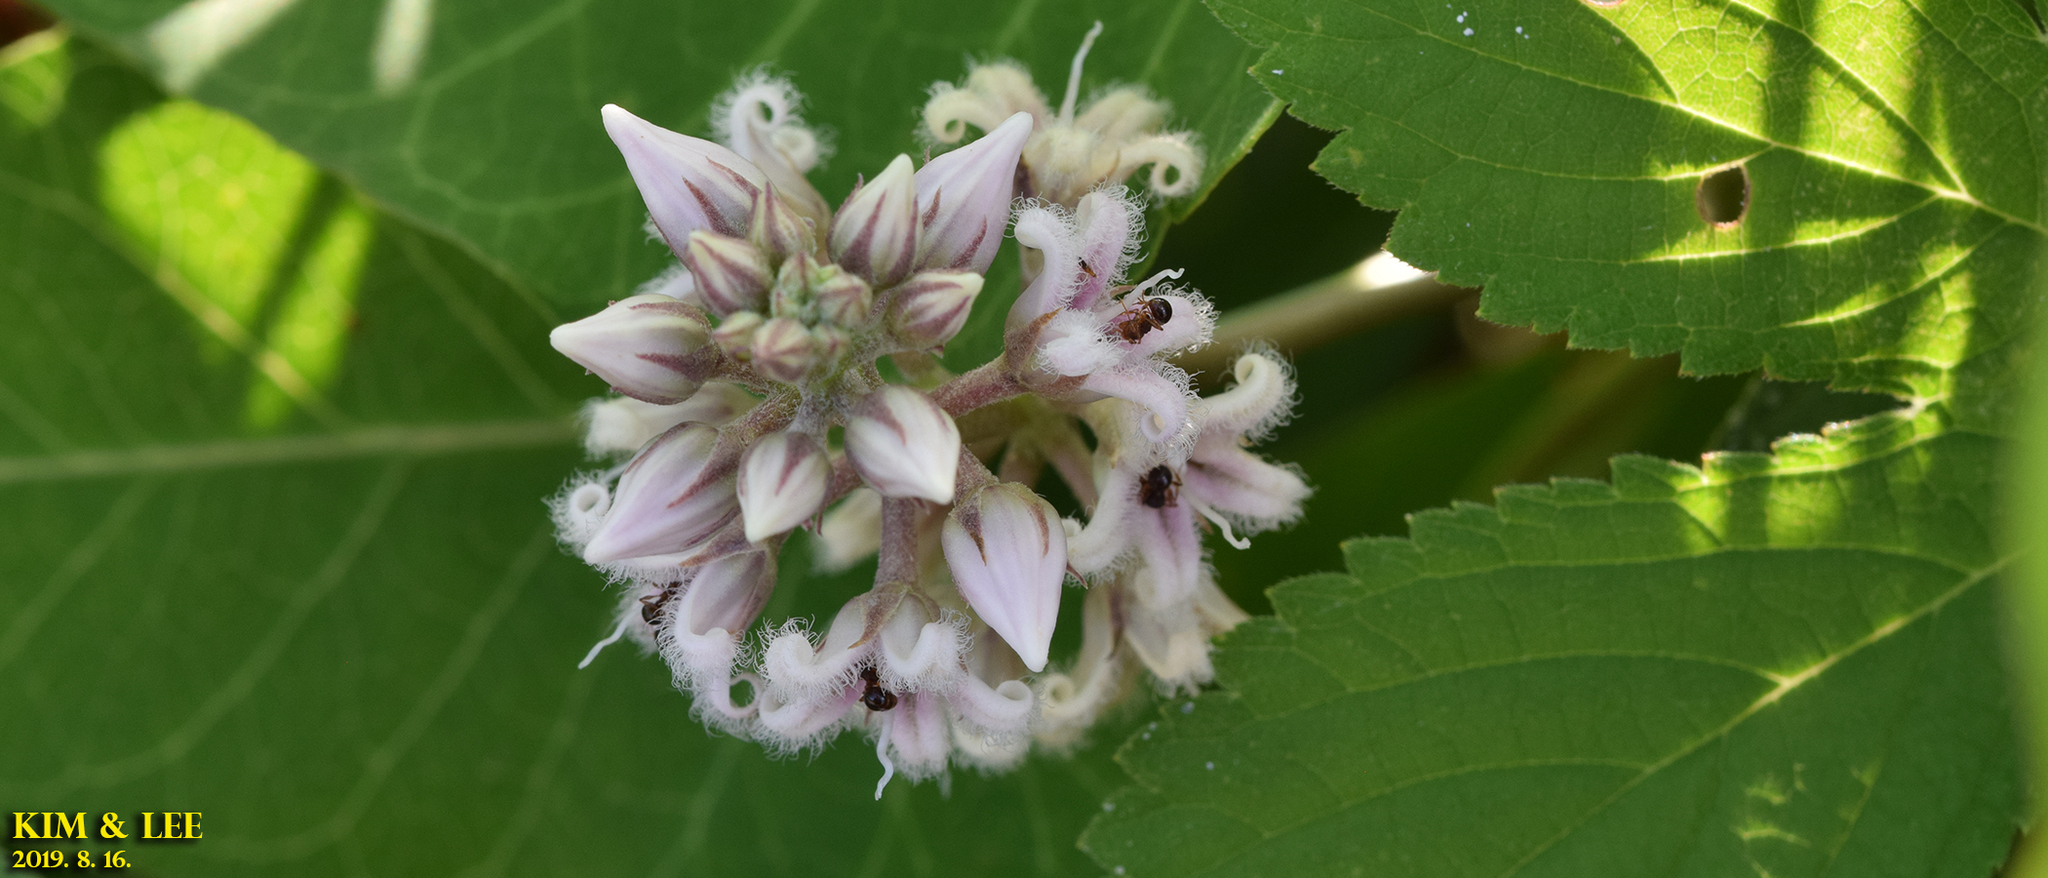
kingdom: Plantae
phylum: Tracheophyta
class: Magnoliopsida
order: Gentianales
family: Apocynaceae
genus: Cynanchum
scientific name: Cynanchum rostellatum
